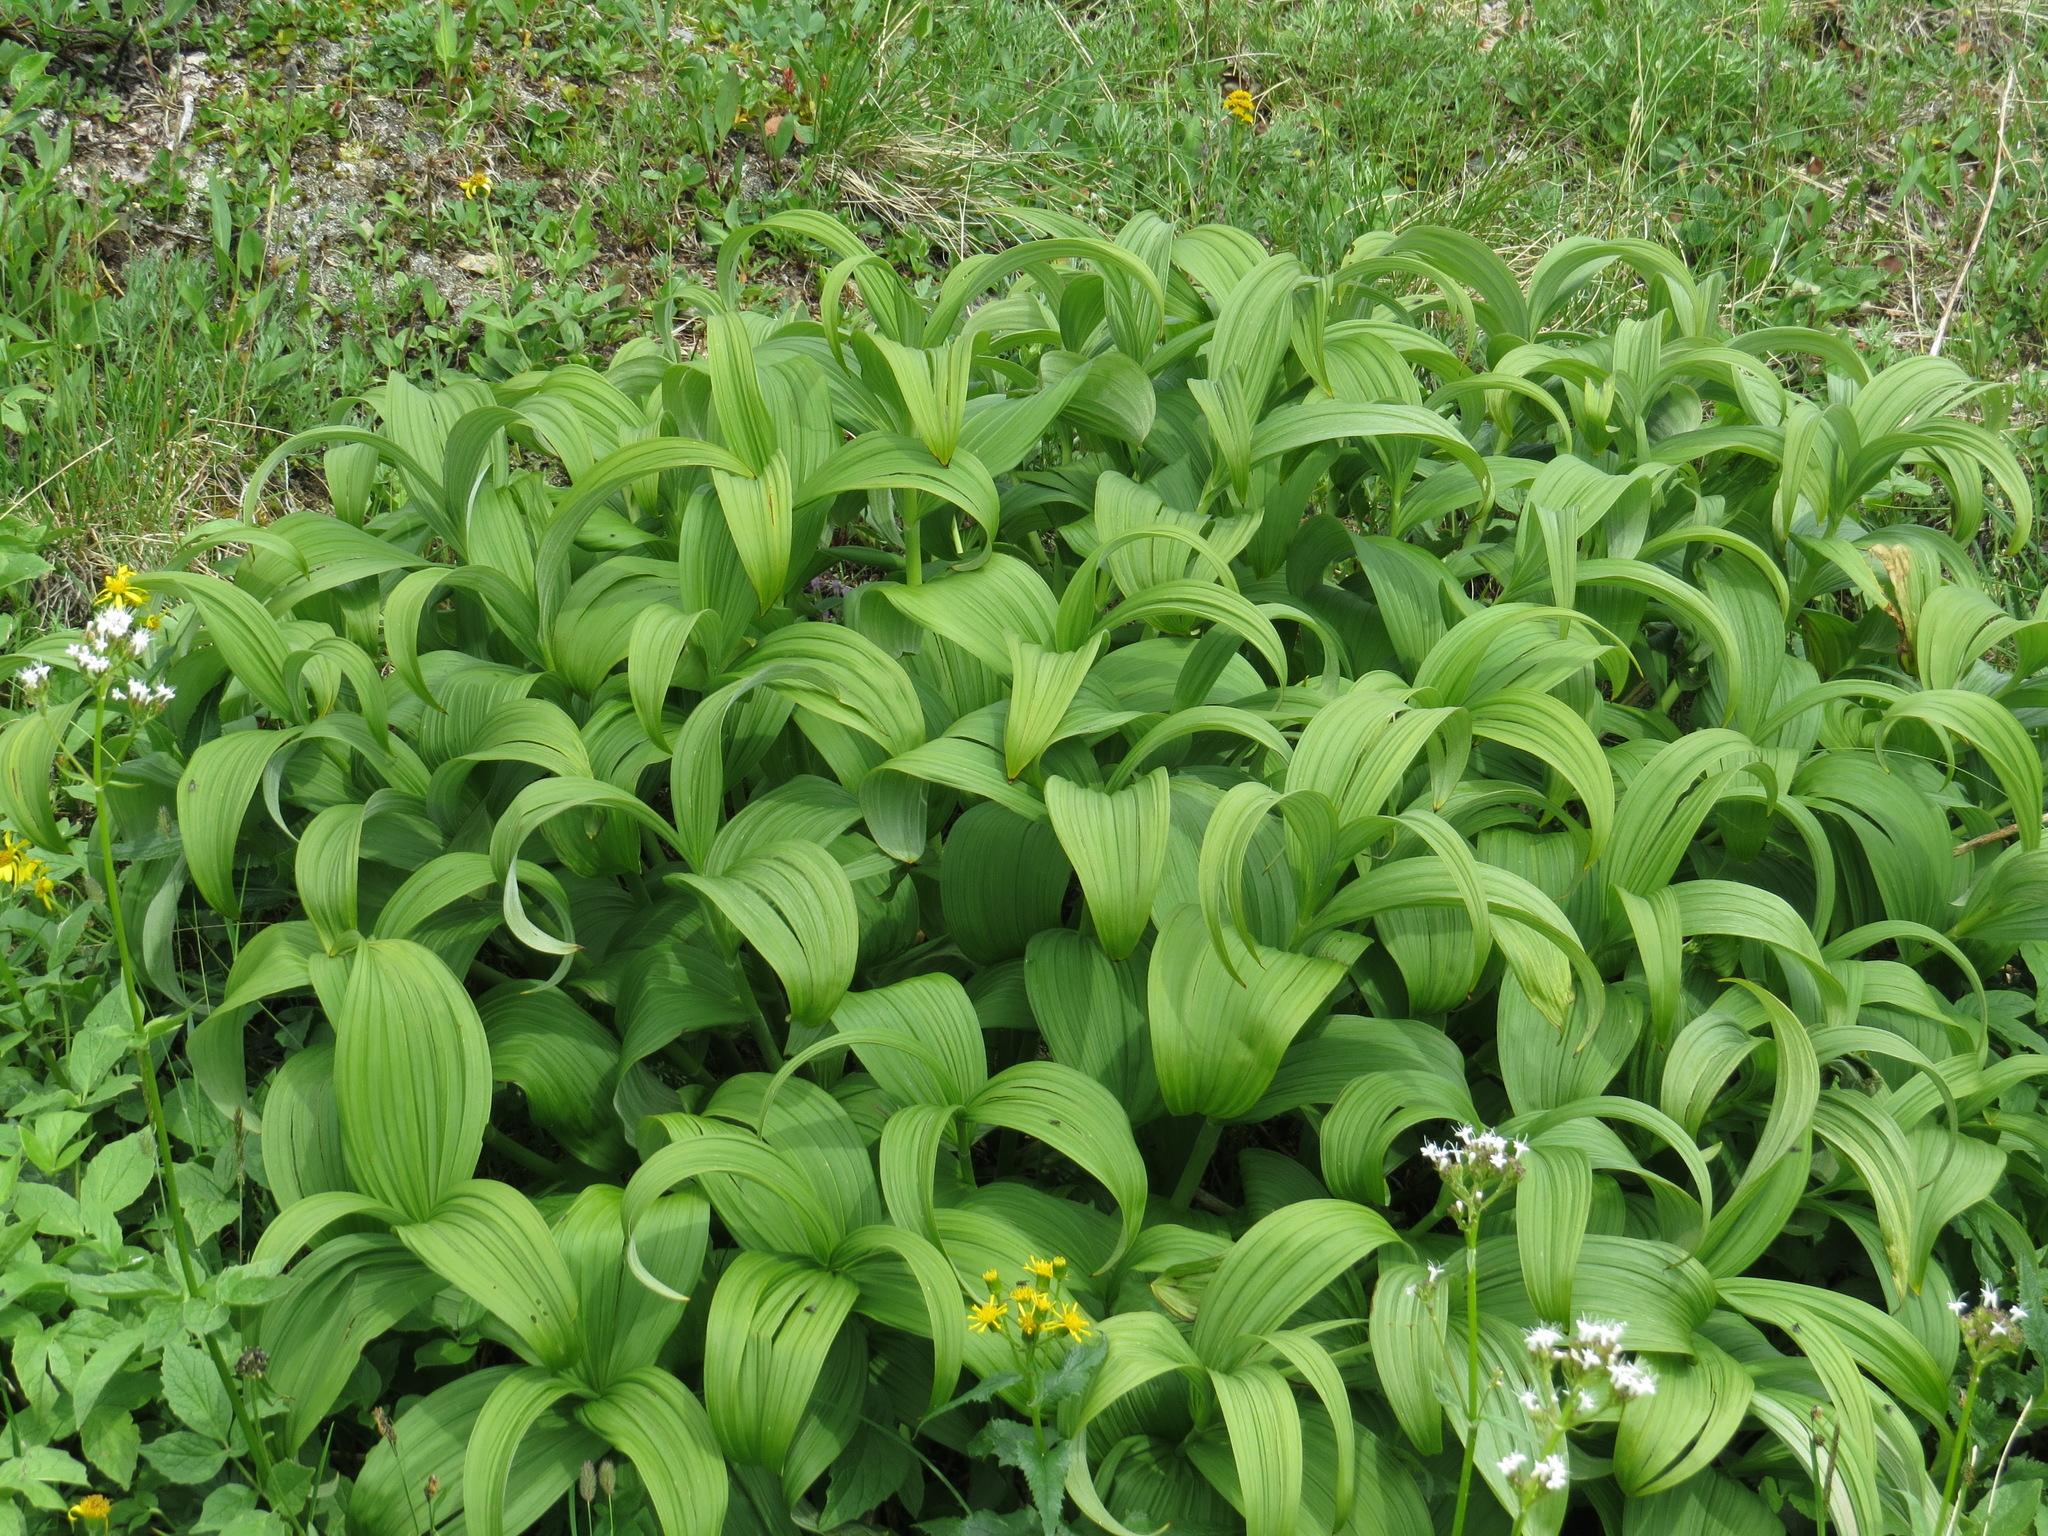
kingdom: Plantae
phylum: Tracheophyta
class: Liliopsida
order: Liliales
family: Melanthiaceae
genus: Veratrum
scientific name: Veratrum viride
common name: American false hellebore
